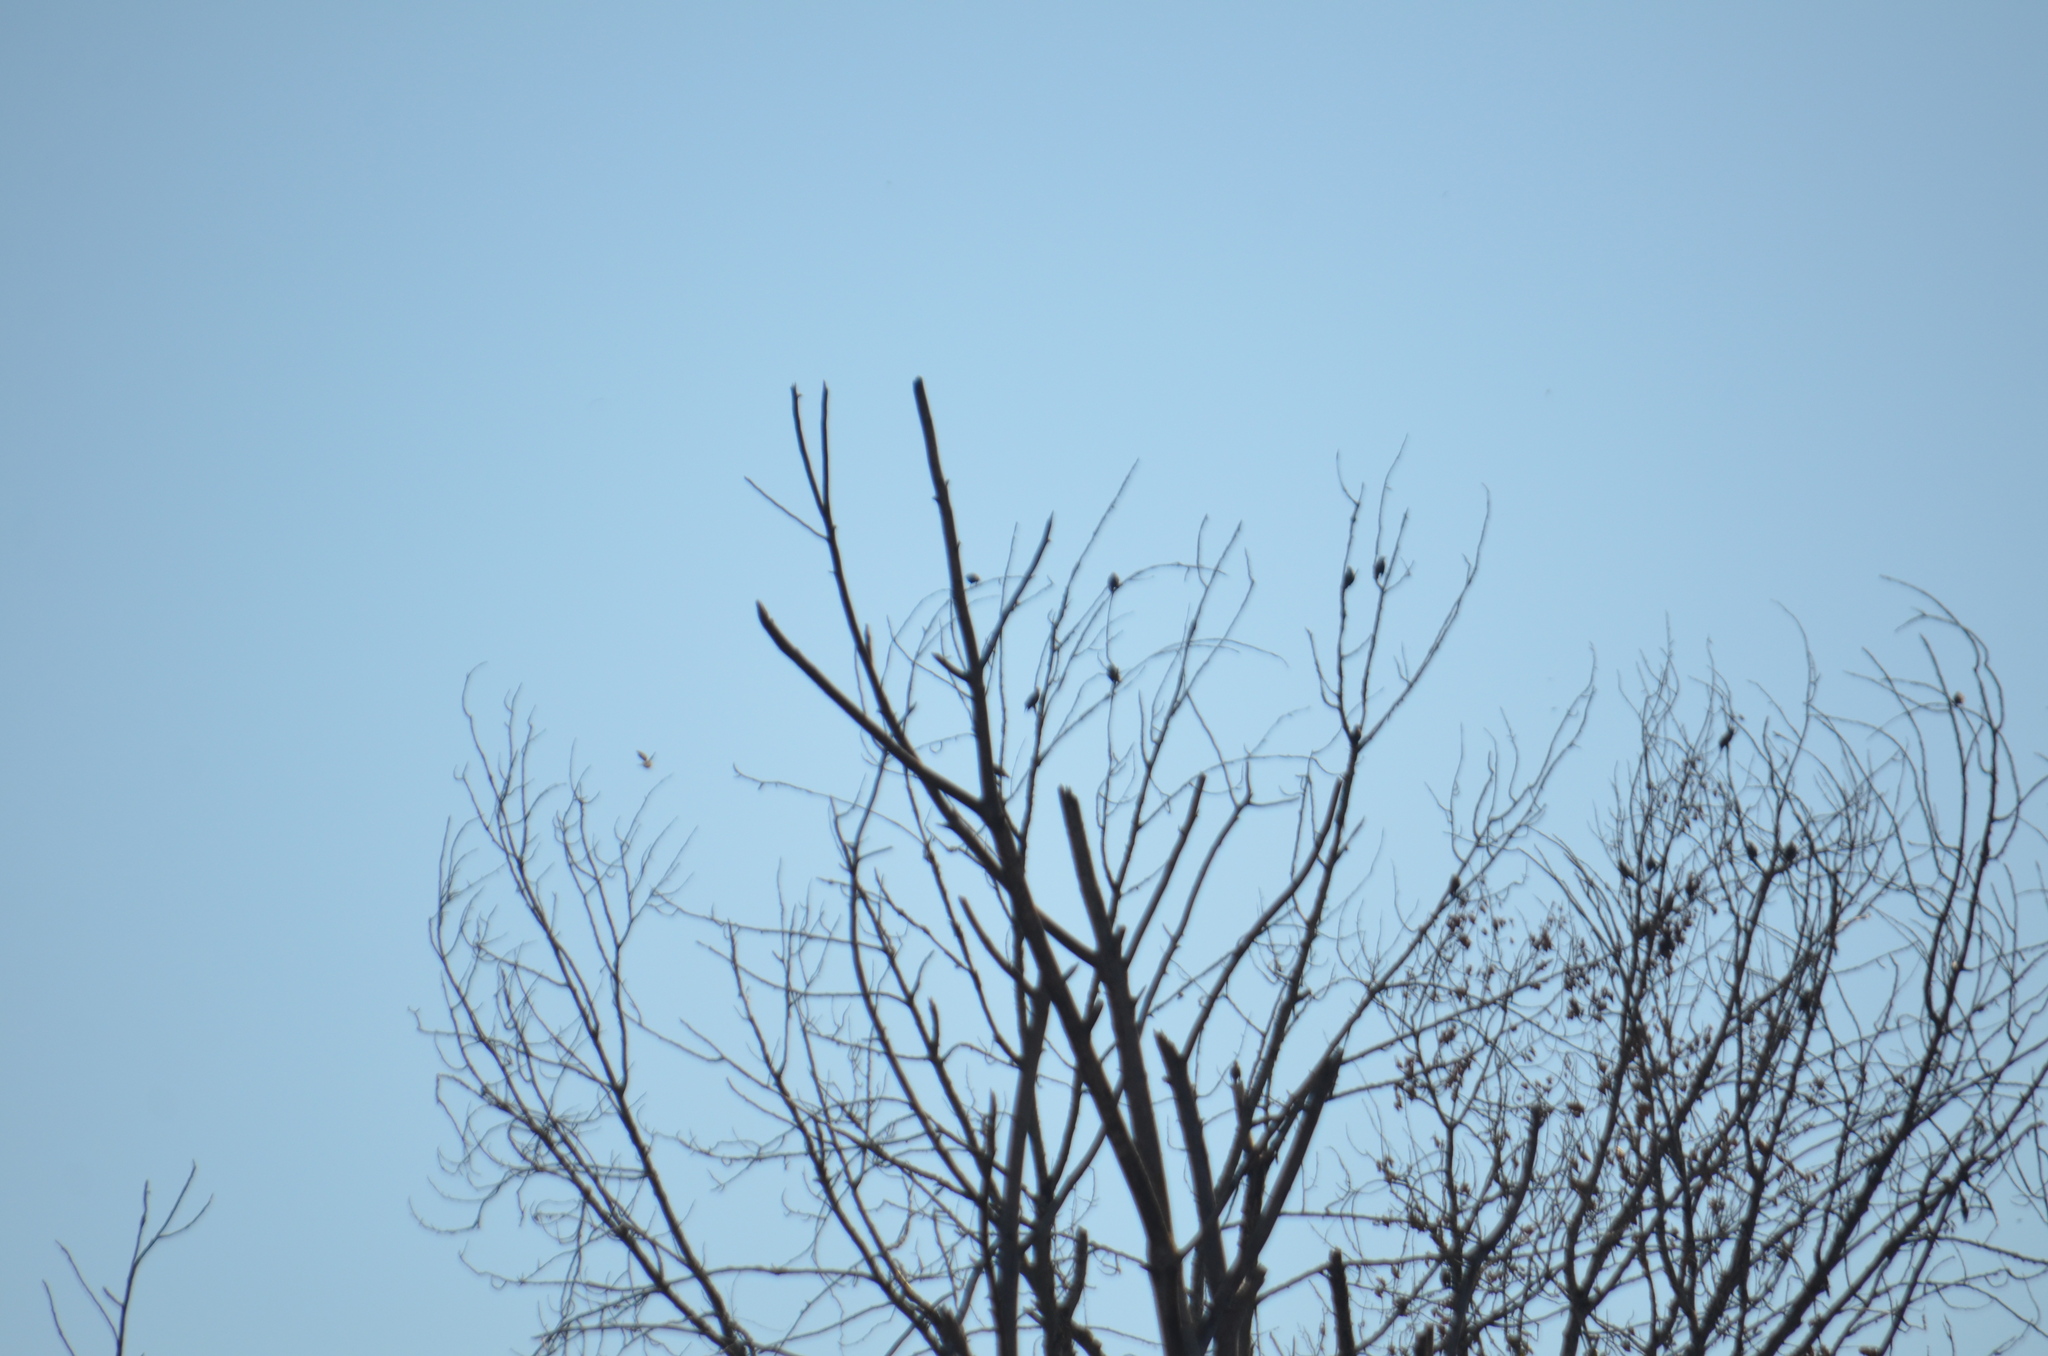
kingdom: Animalia
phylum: Chordata
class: Aves
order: Passeriformes
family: Sturnidae
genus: Sturnus
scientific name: Sturnus vulgaris
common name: Common starling
